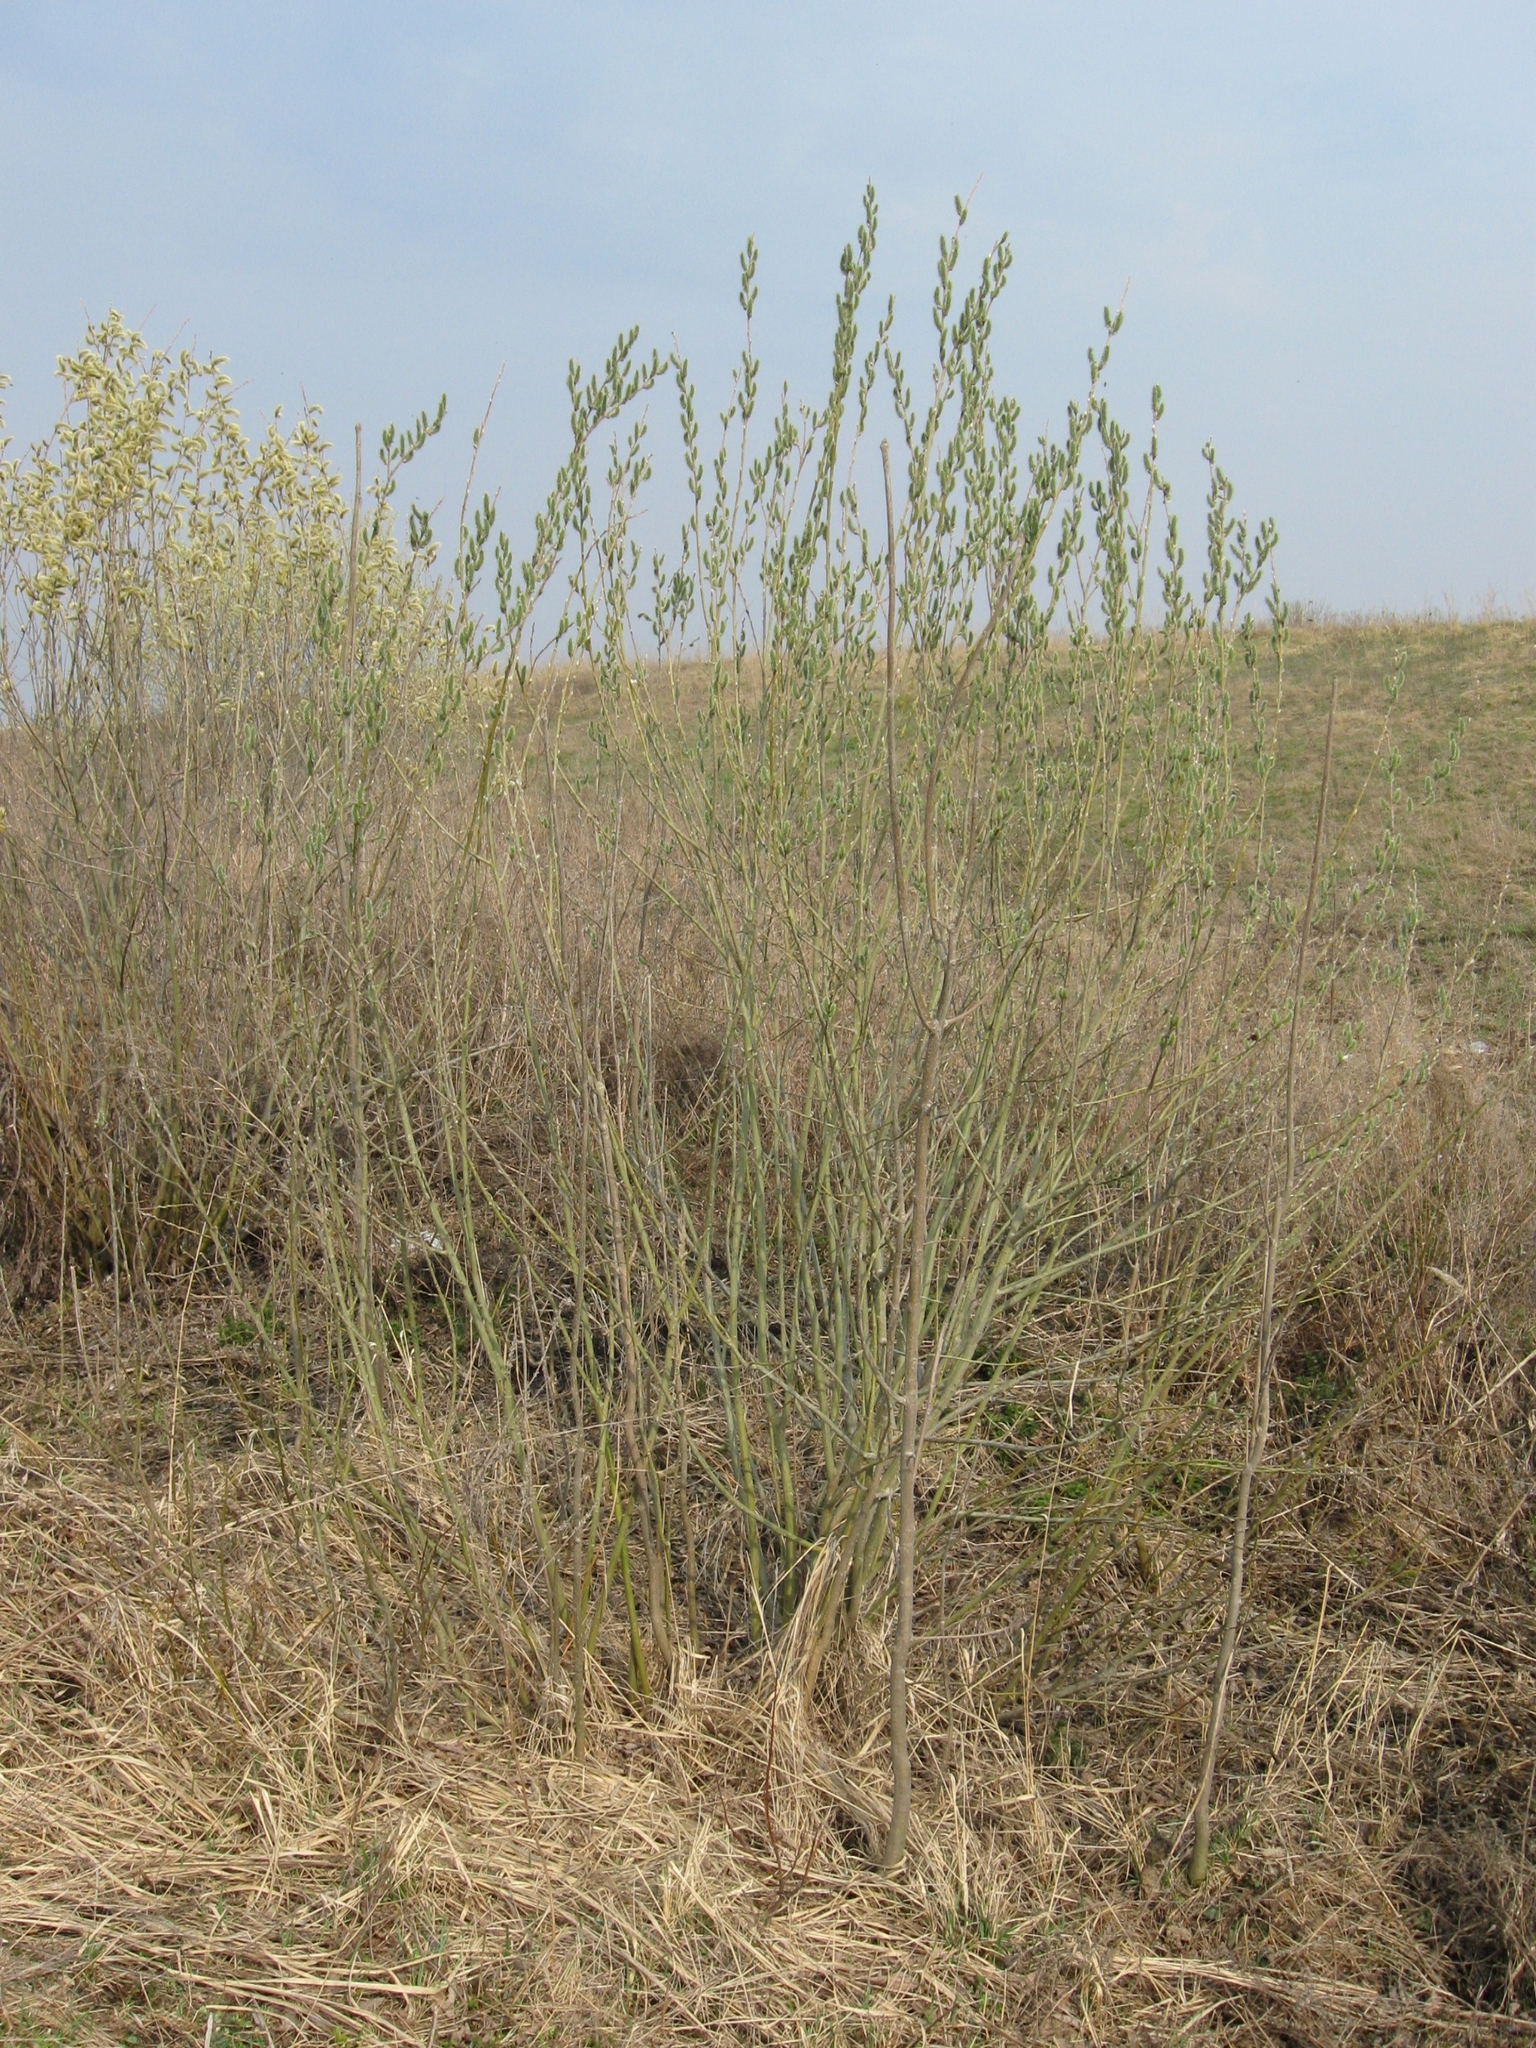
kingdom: Plantae
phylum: Tracheophyta
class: Magnoliopsida
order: Malpighiales
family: Salicaceae
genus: Salix
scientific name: Salix cinerea
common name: Common sallow
